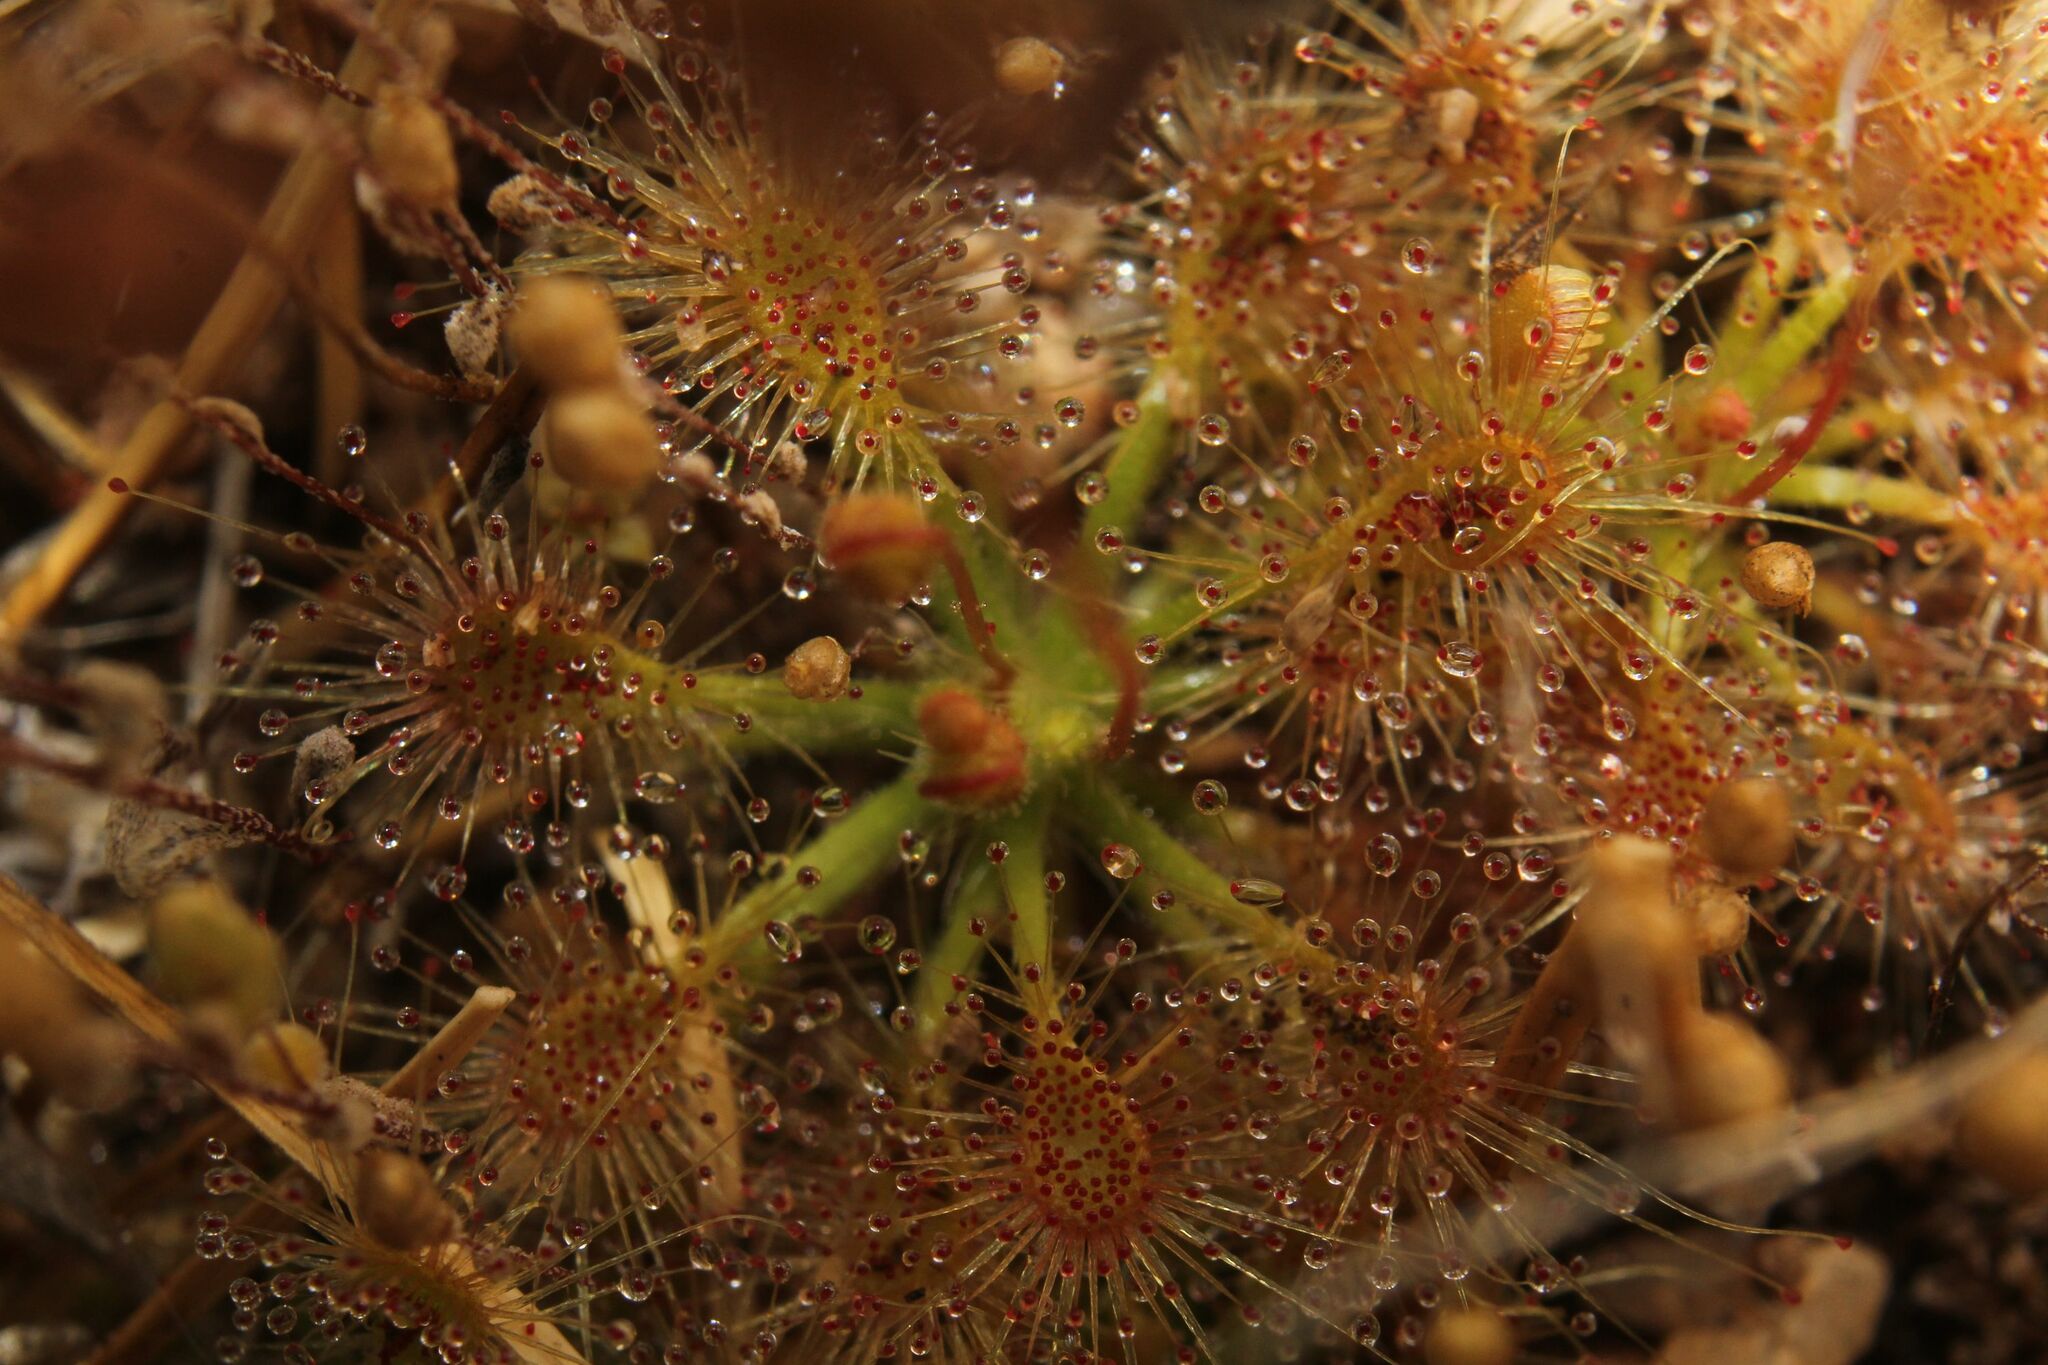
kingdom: Plantae
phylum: Tracheophyta
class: Magnoliopsida
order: Caryophyllales
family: Droseraceae
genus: Drosera
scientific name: Drosera nitidula
